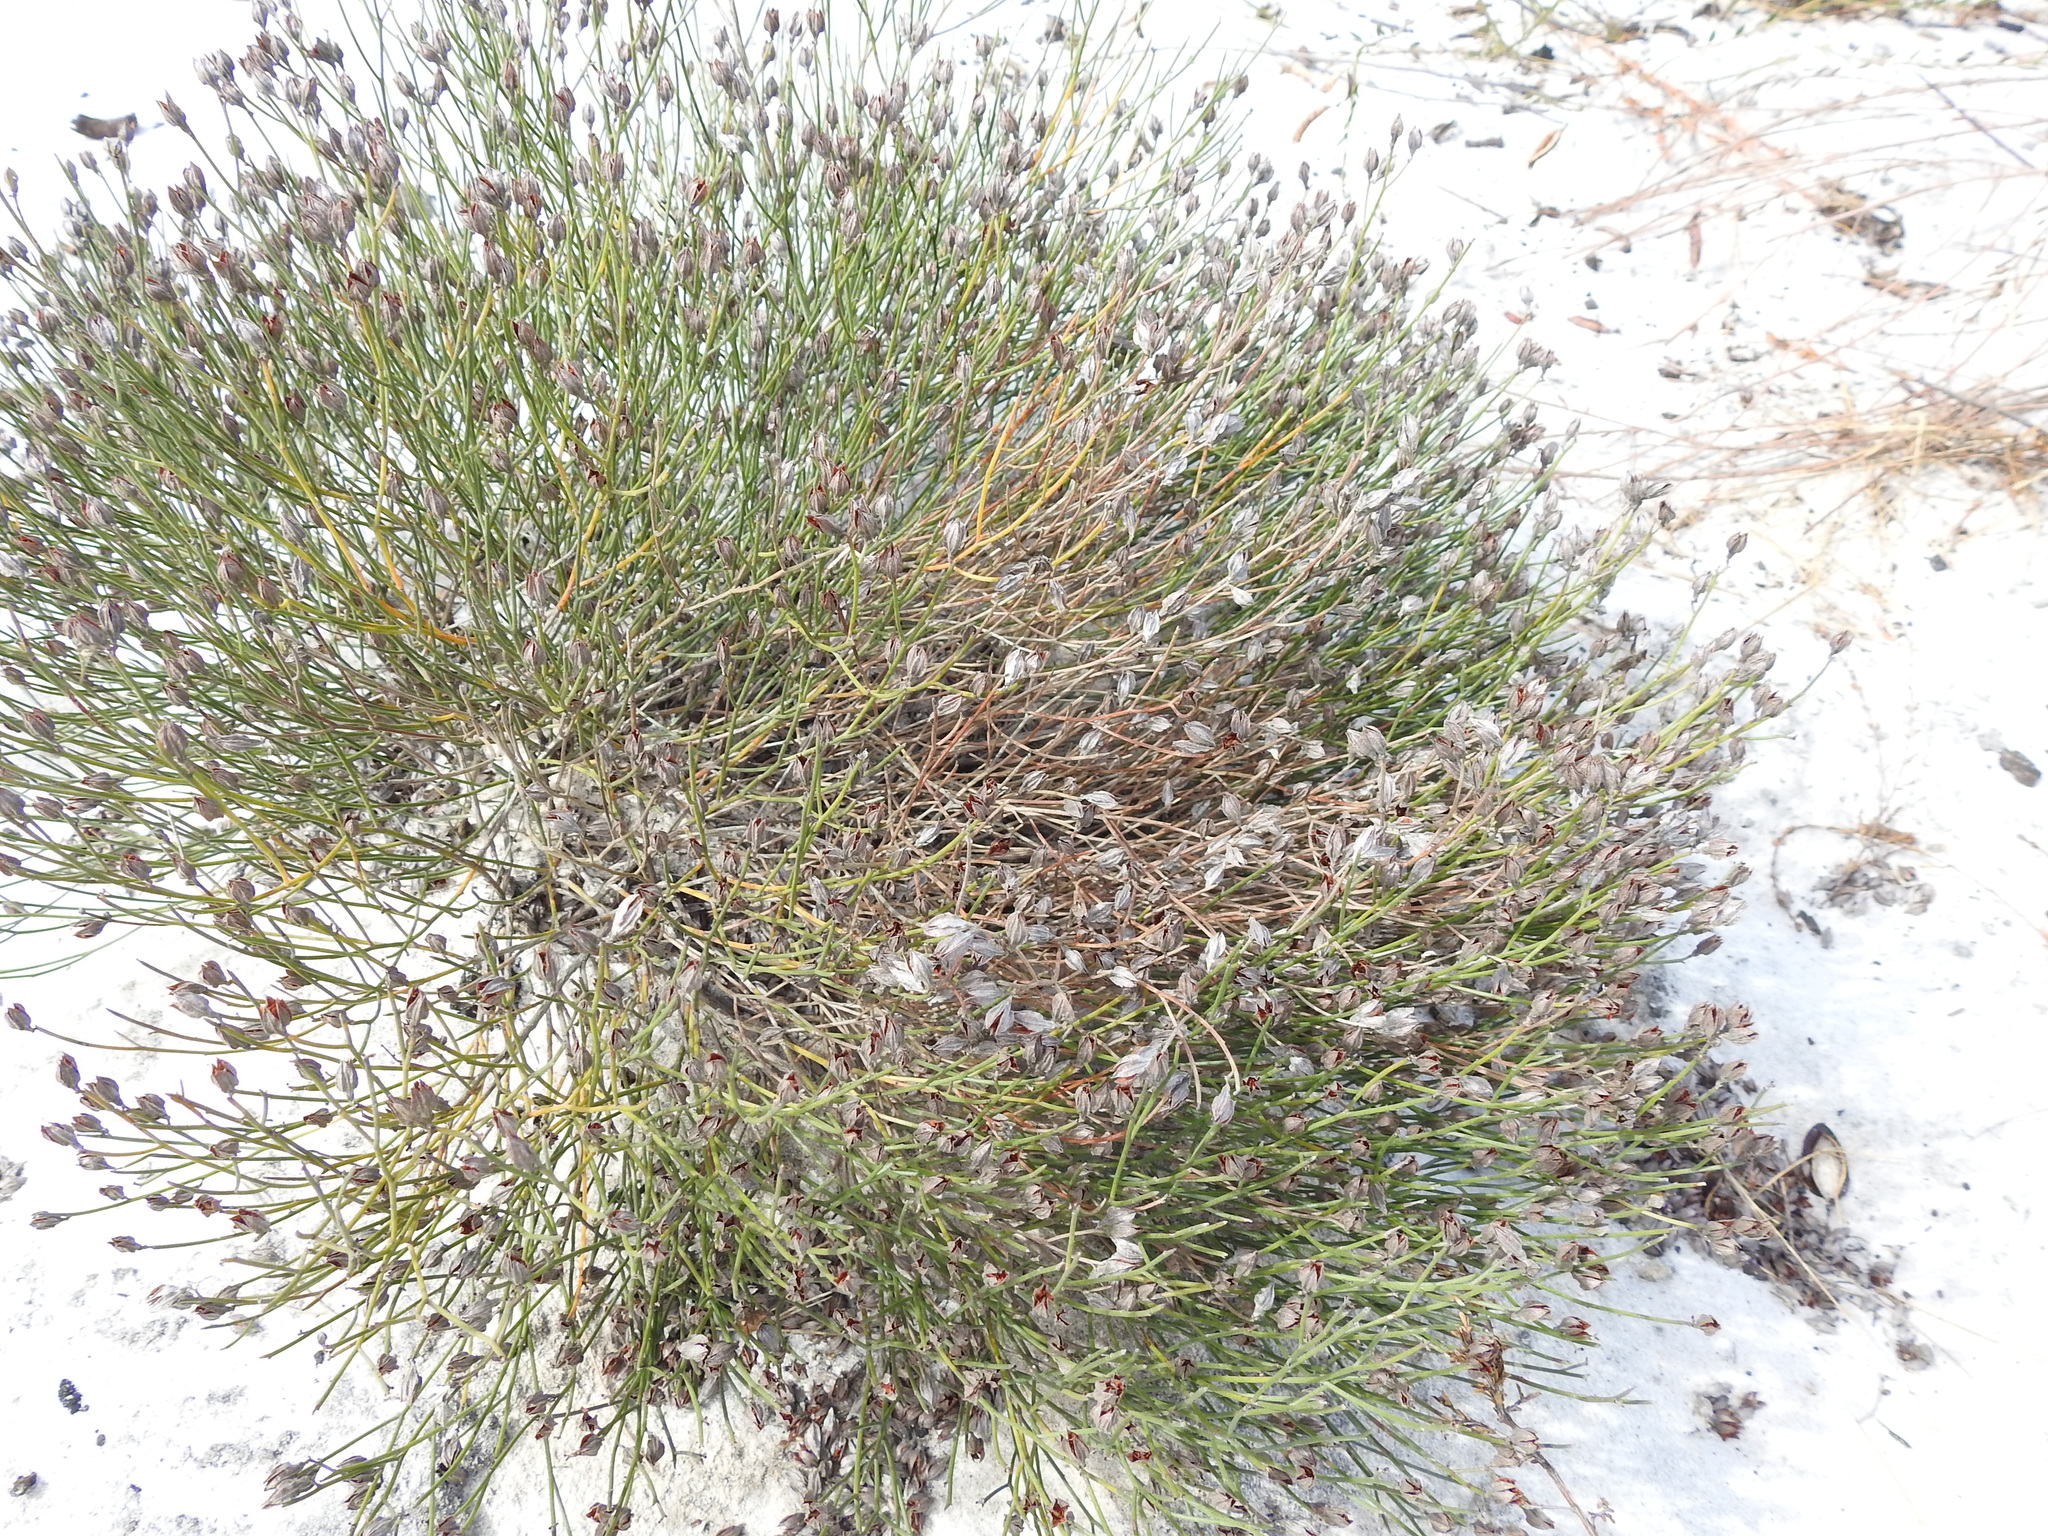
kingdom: Plantae
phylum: Tracheophyta
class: Magnoliopsida
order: Fabales
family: Fabaceae
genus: Jacksonia
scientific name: Jacksonia stackhousei
